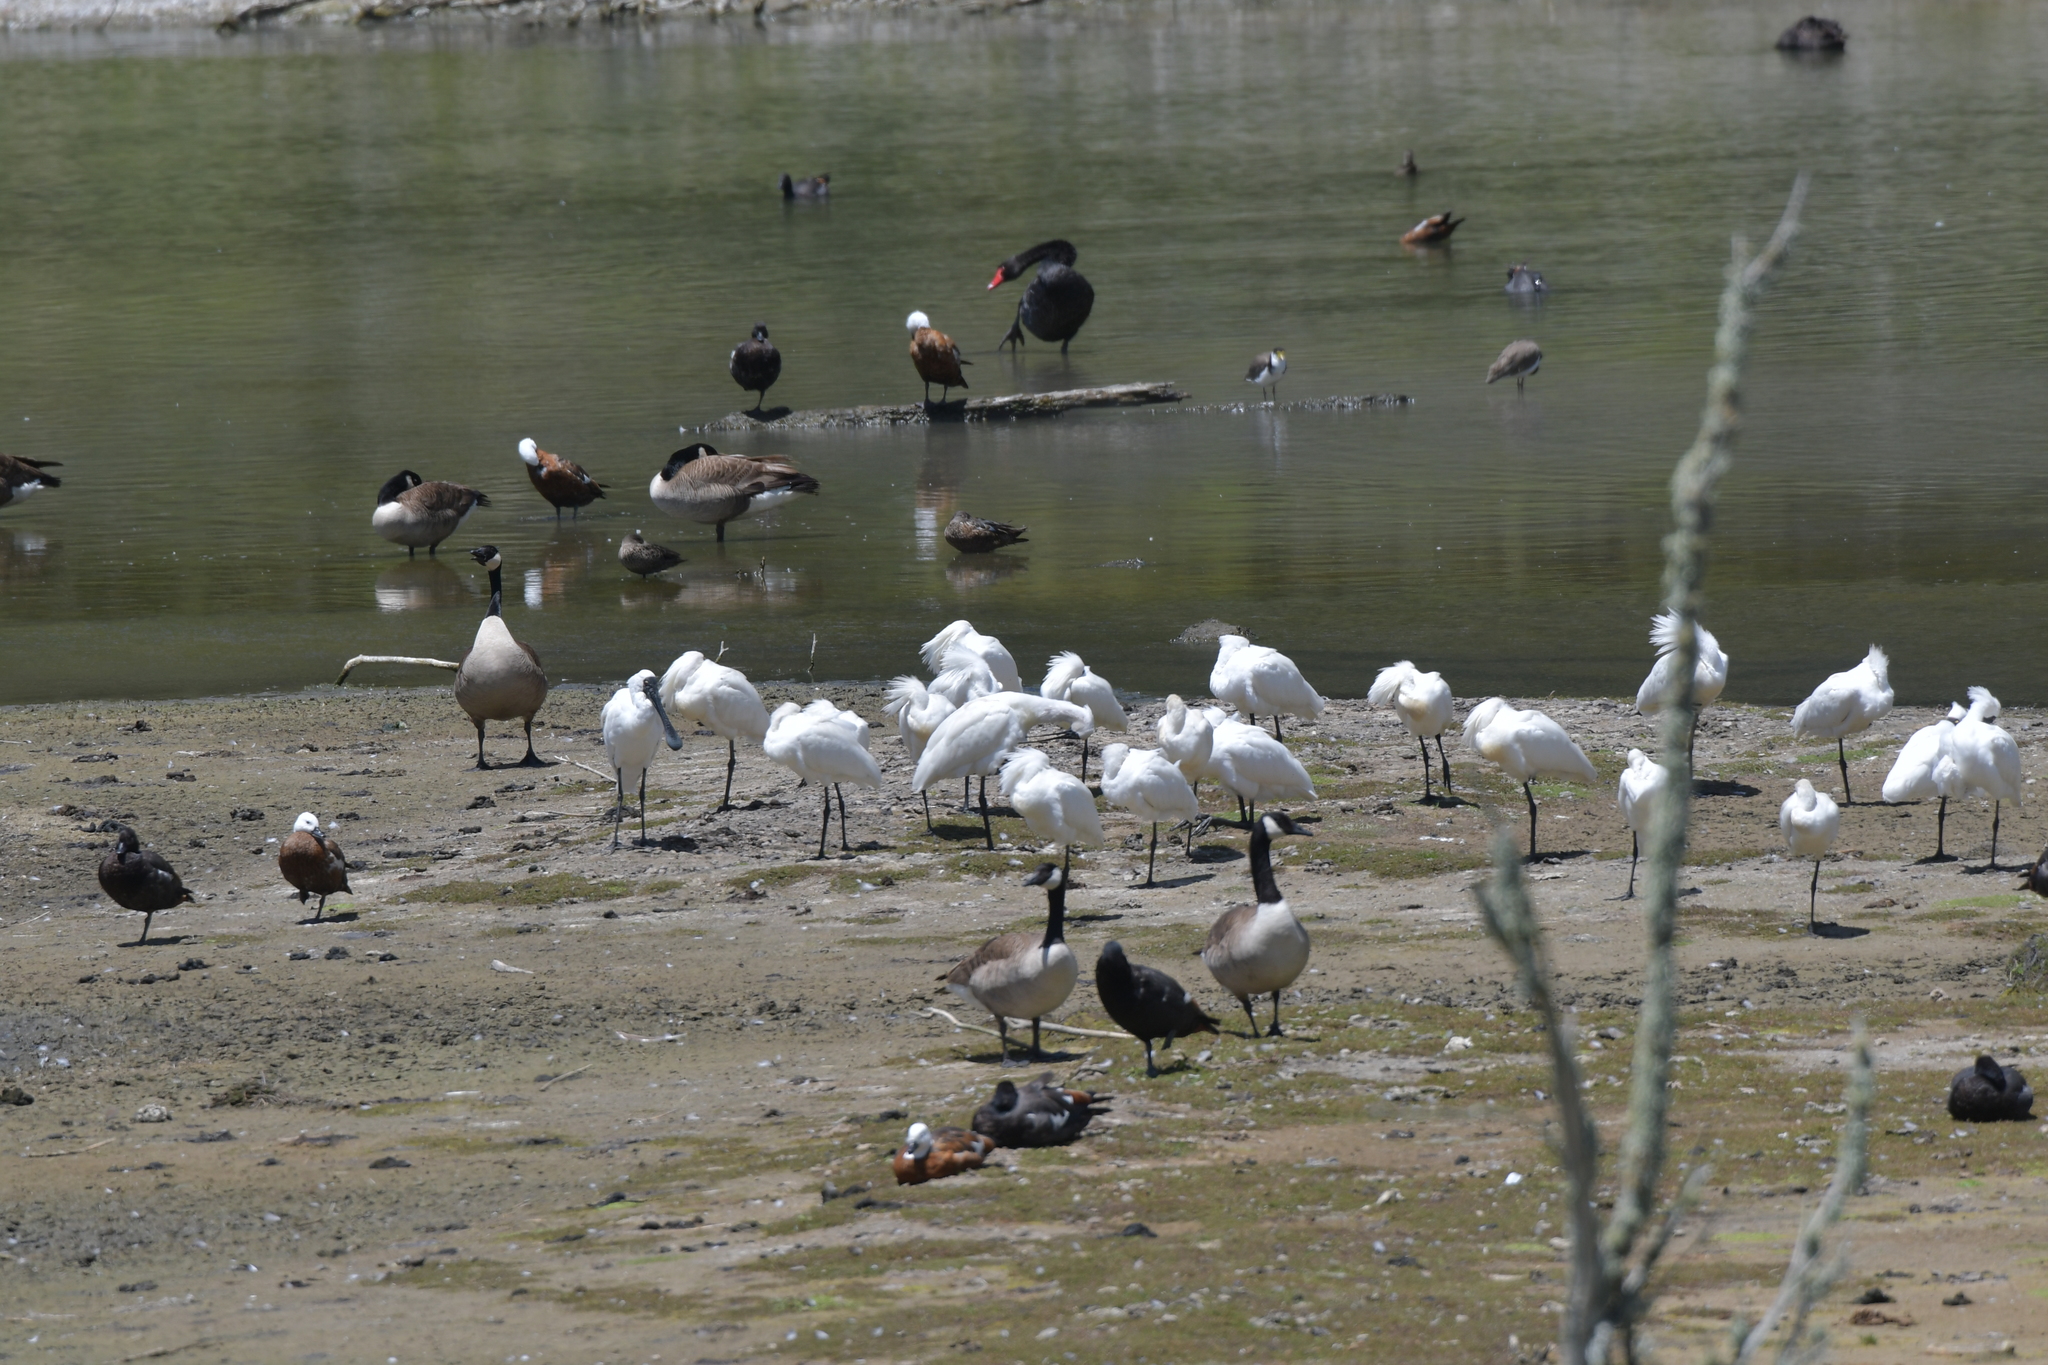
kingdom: Animalia
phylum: Chordata
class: Aves
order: Pelecaniformes
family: Threskiornithidae
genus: Platalea
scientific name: Platalea regia
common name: Royal spoonbill
